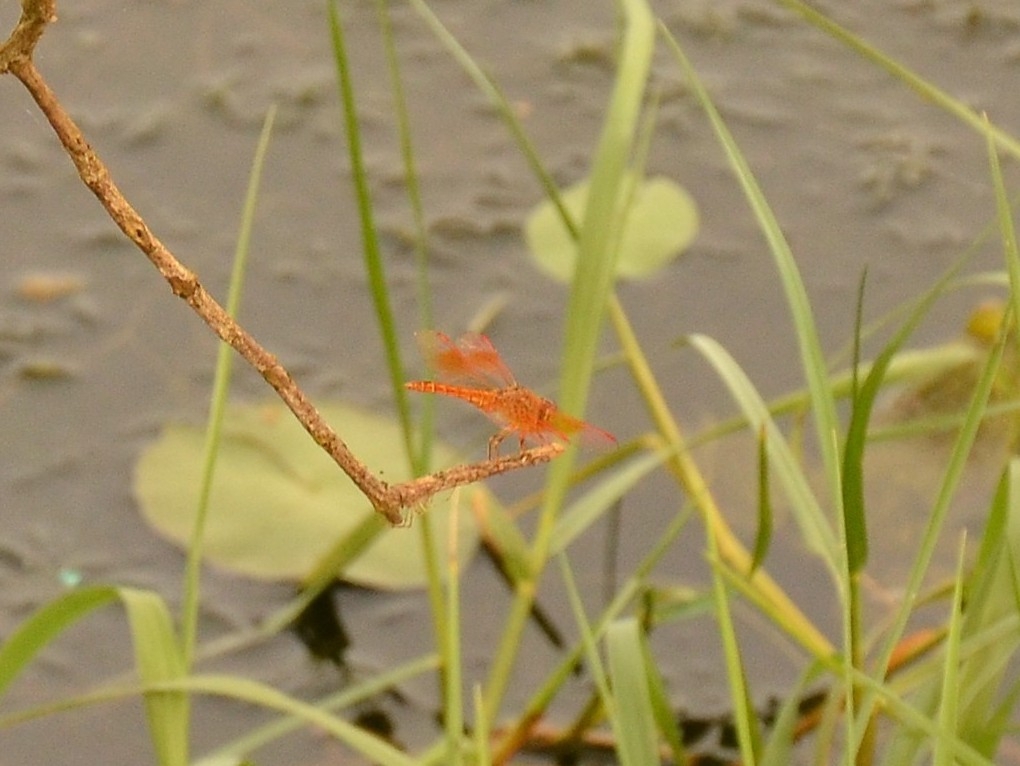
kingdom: Animalia
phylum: Arthropoda
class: Insecta
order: Odonata
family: Libellulidae
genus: Brachythemis
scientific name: Brachythemis contaminata
